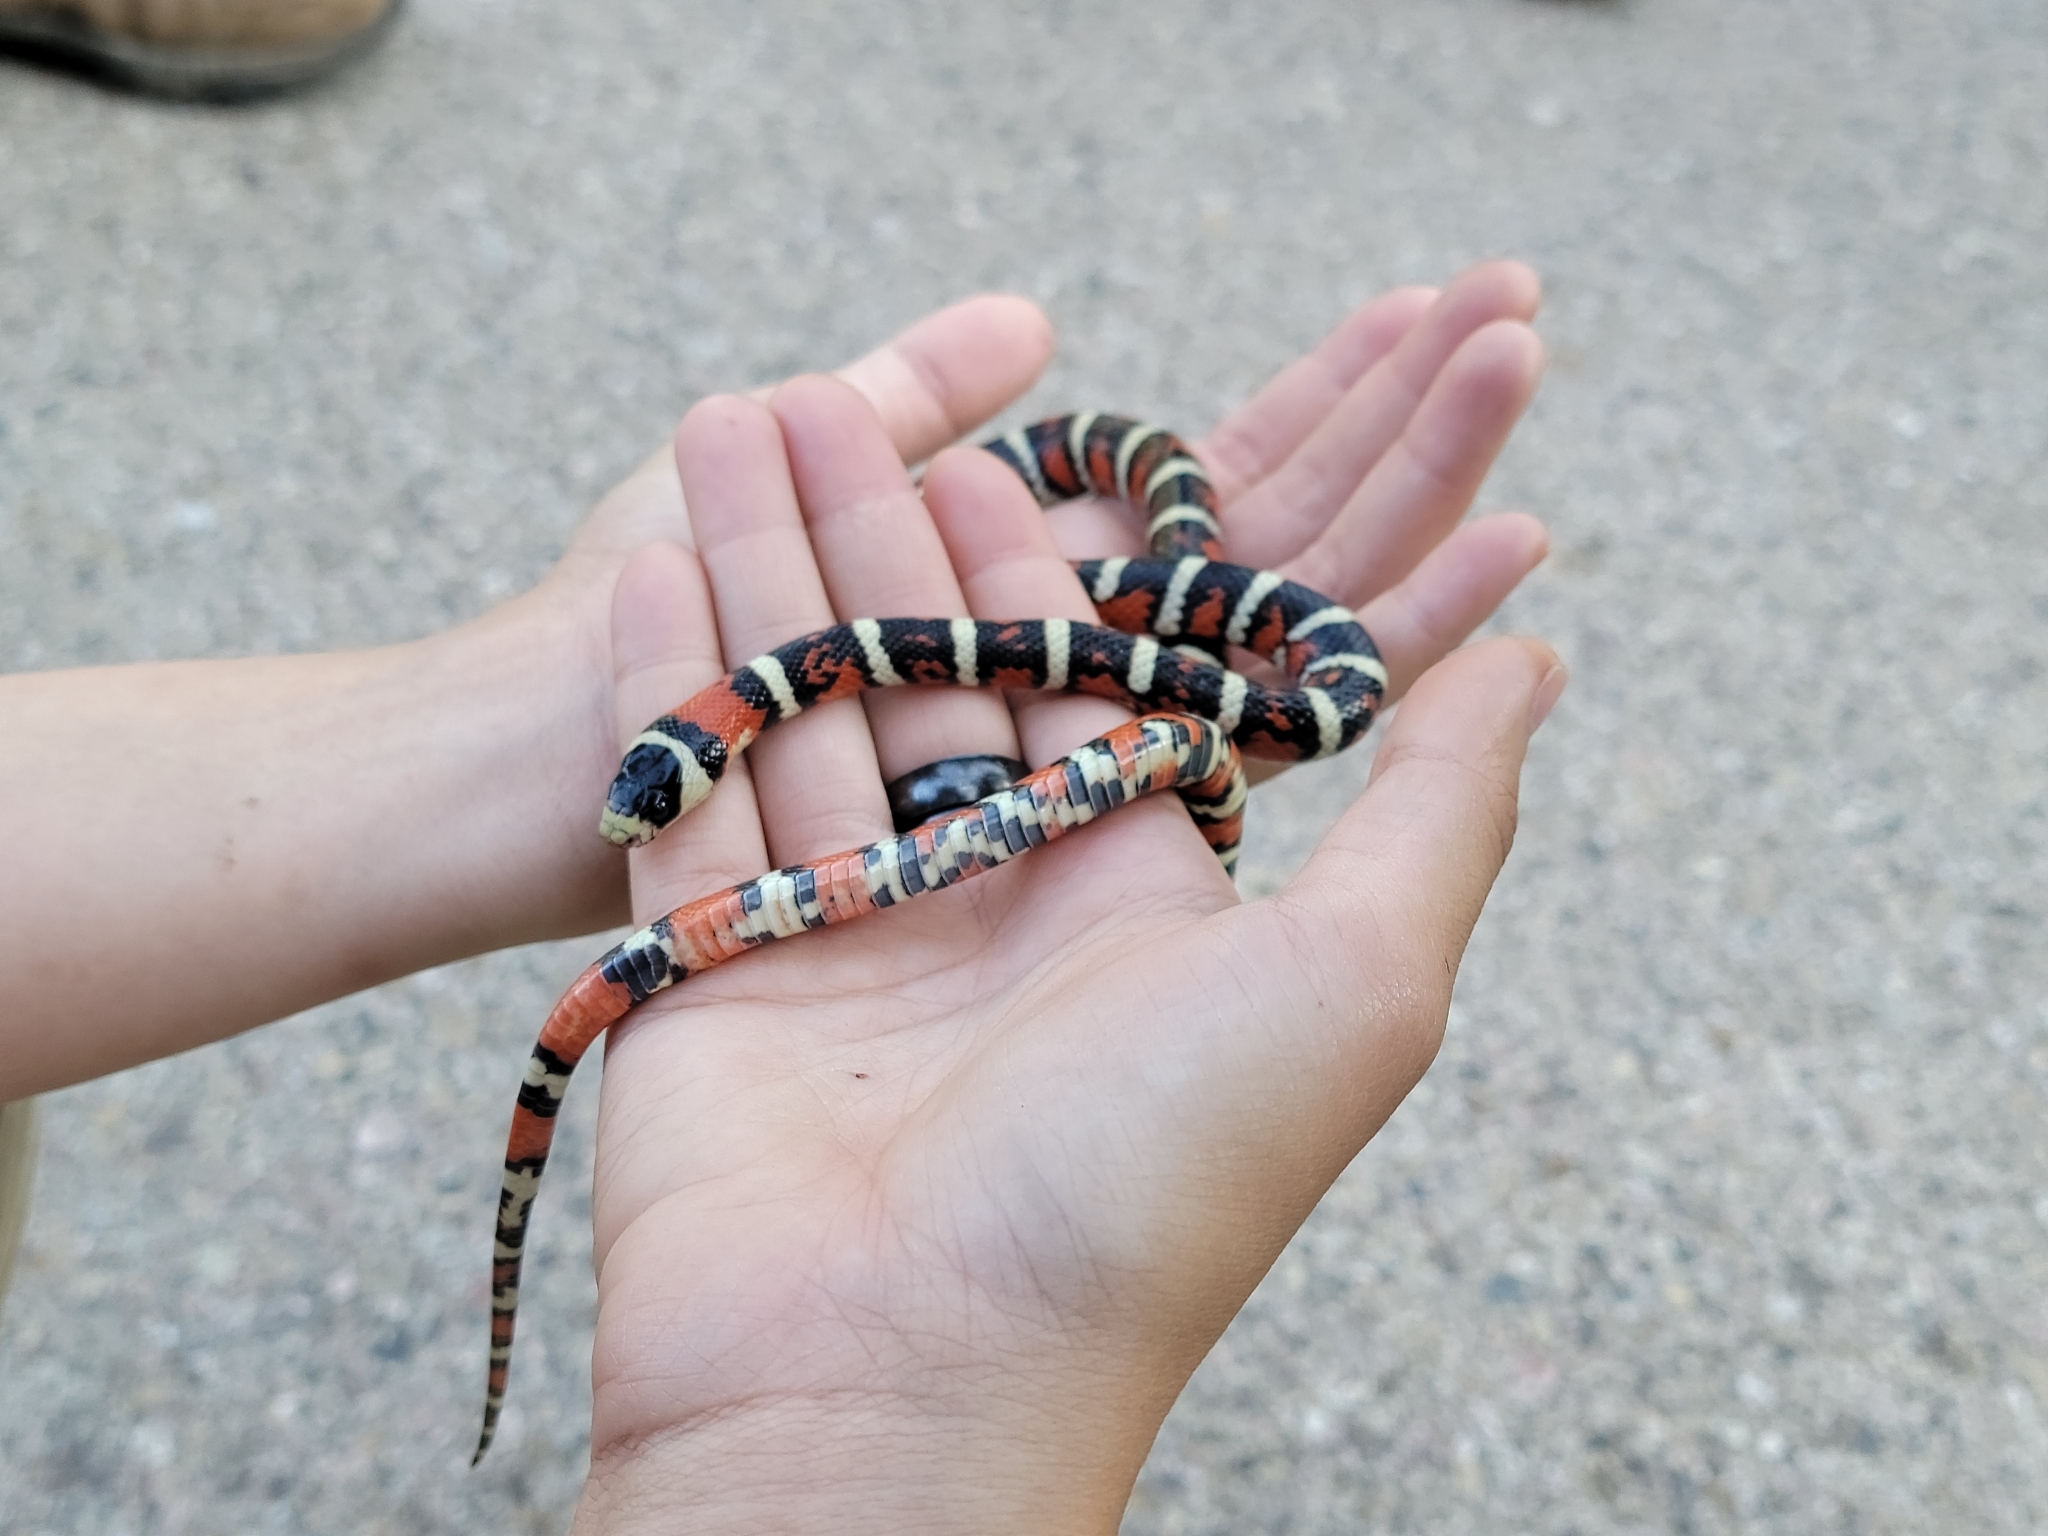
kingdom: Animalia
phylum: Chordata
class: Squamata
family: Colubridae
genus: Lampropeltis
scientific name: Lampropeltis pyromelana
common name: Sonoran mountain kingsnake
